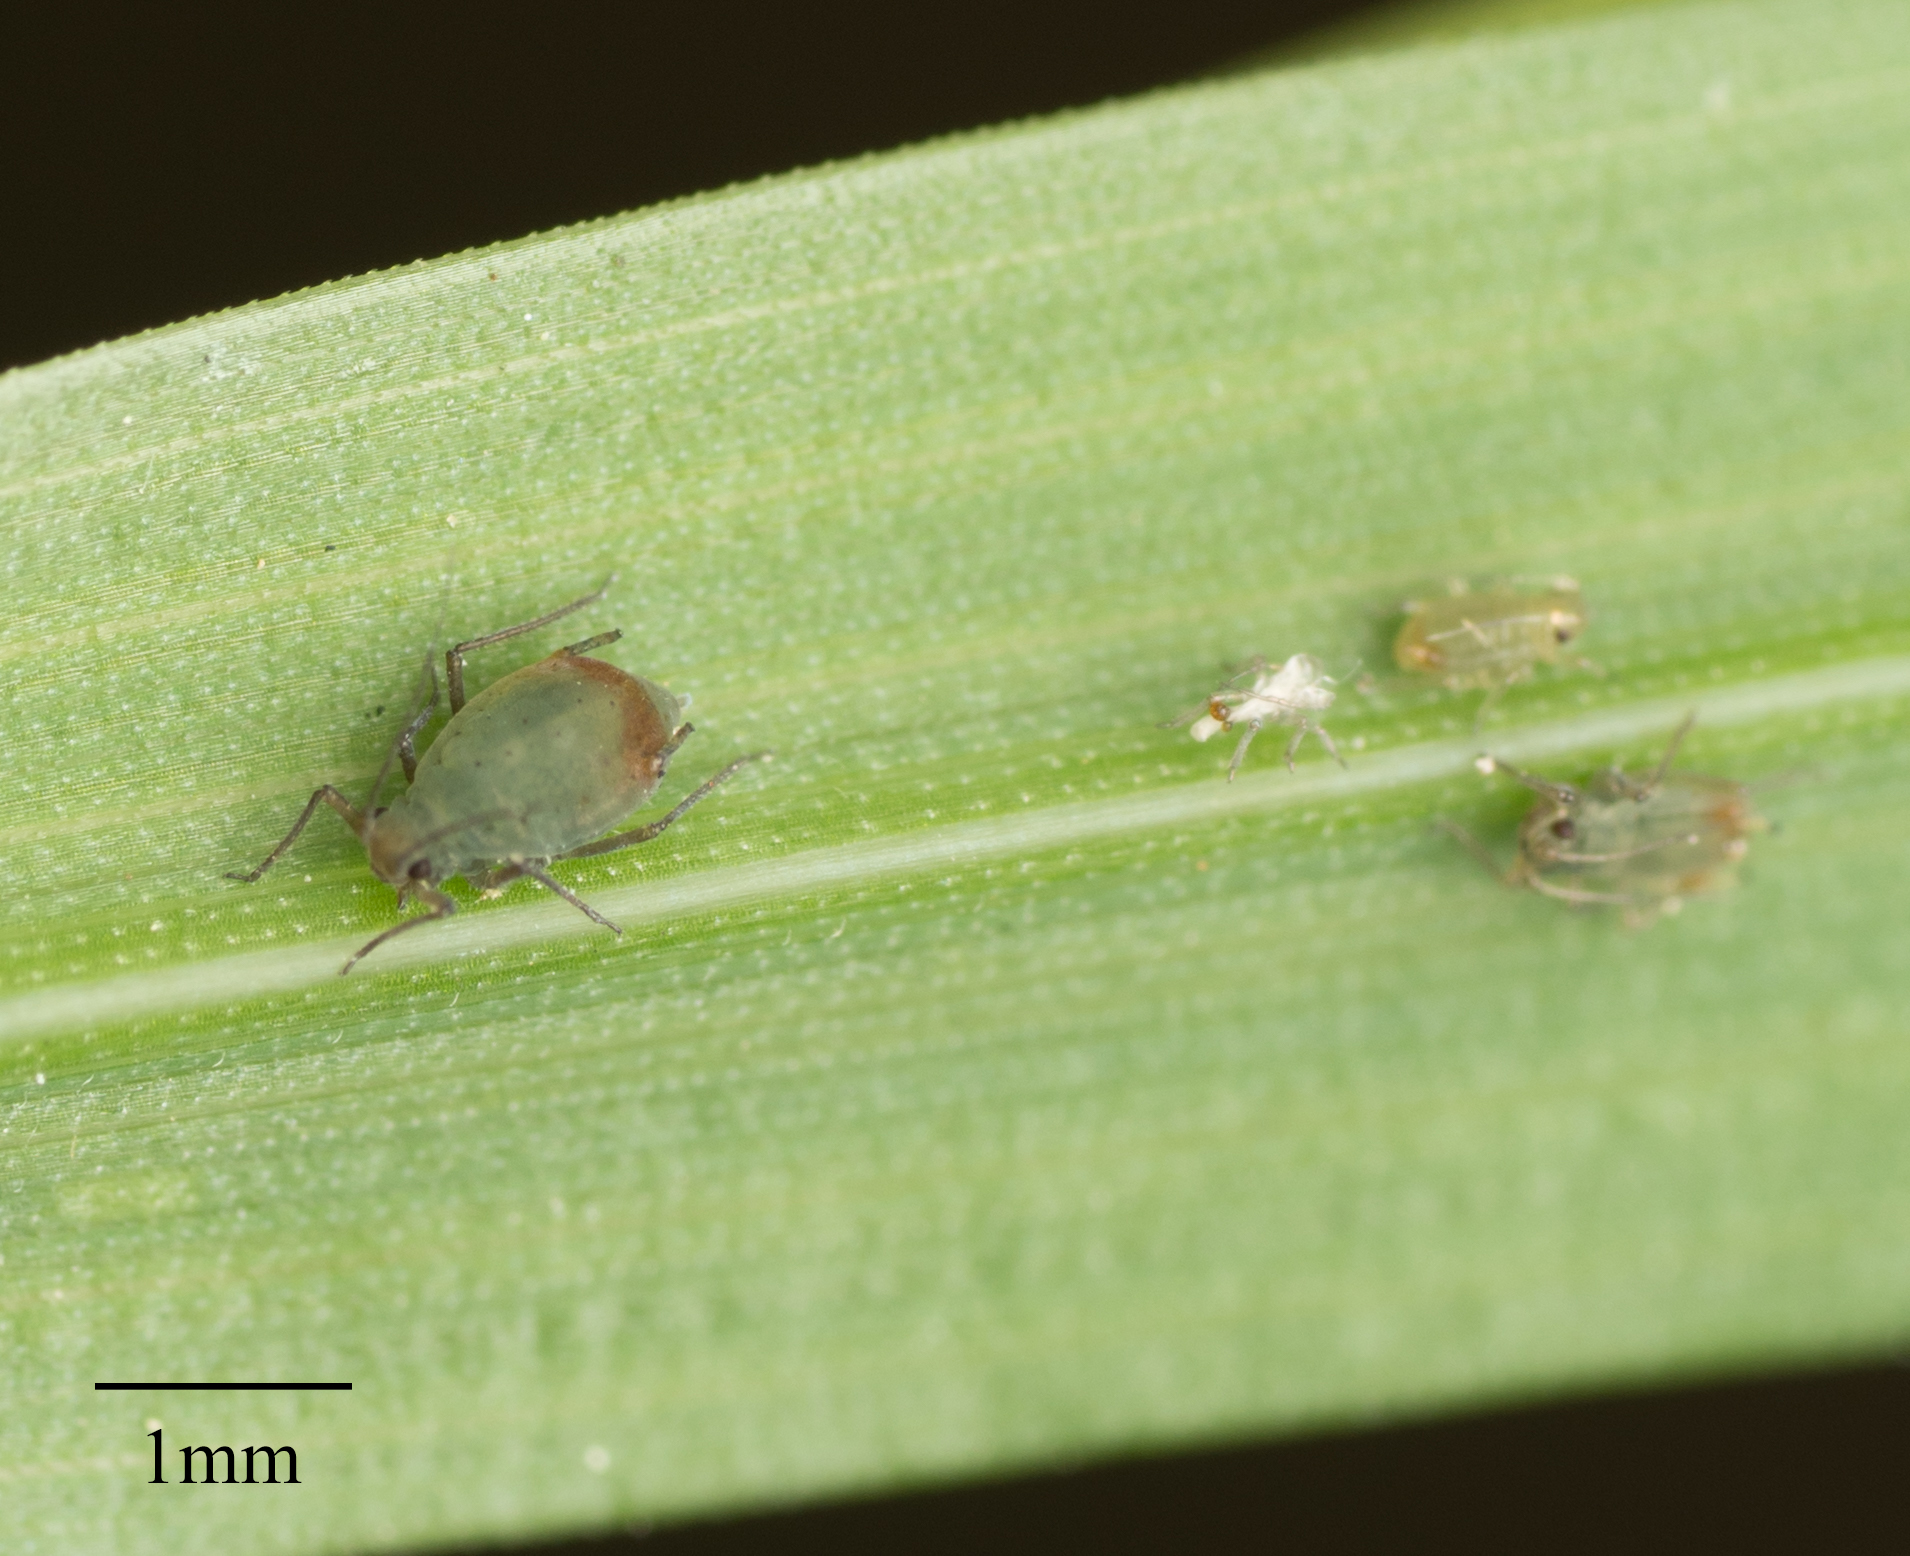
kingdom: Animalia
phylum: Arthropoda
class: Insecta
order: Hemiptera
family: Aphididae
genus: Rhopalosiphum
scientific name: Rhopalosiphum padi
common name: Oat-birdcherry aphid
